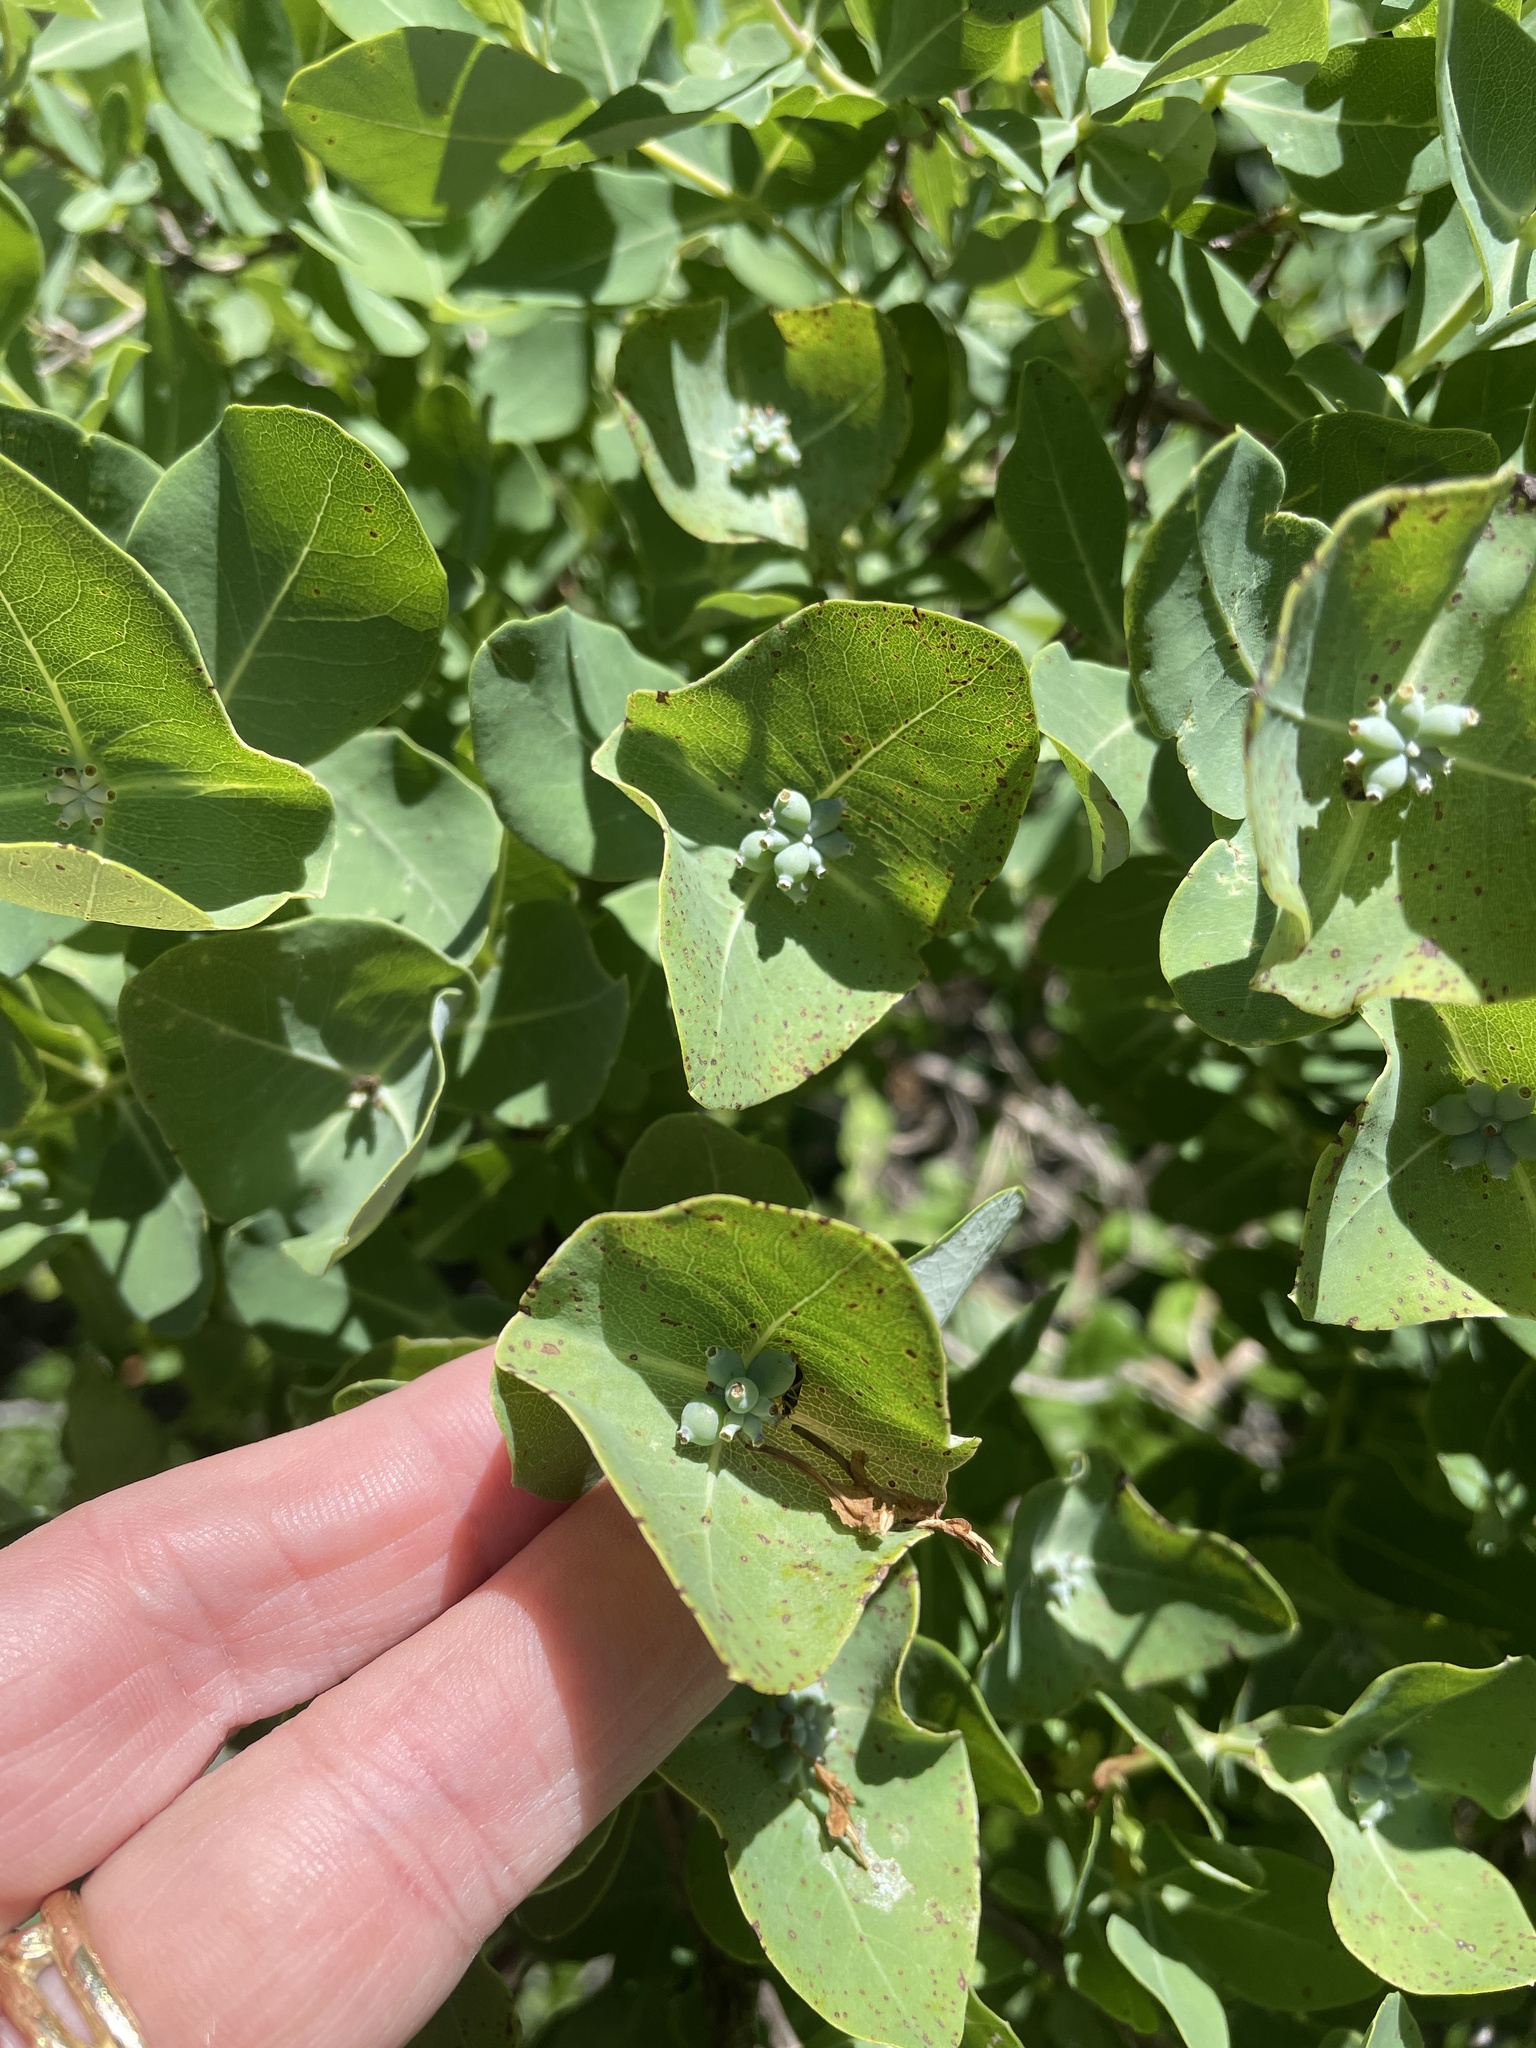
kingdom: Plantae
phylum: Tracheophyta
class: Magnoliopsida
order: Dipsacales
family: Caprifoliaceae
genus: Lonicera
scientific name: Lonicera albiflora
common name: White honeysuckle
